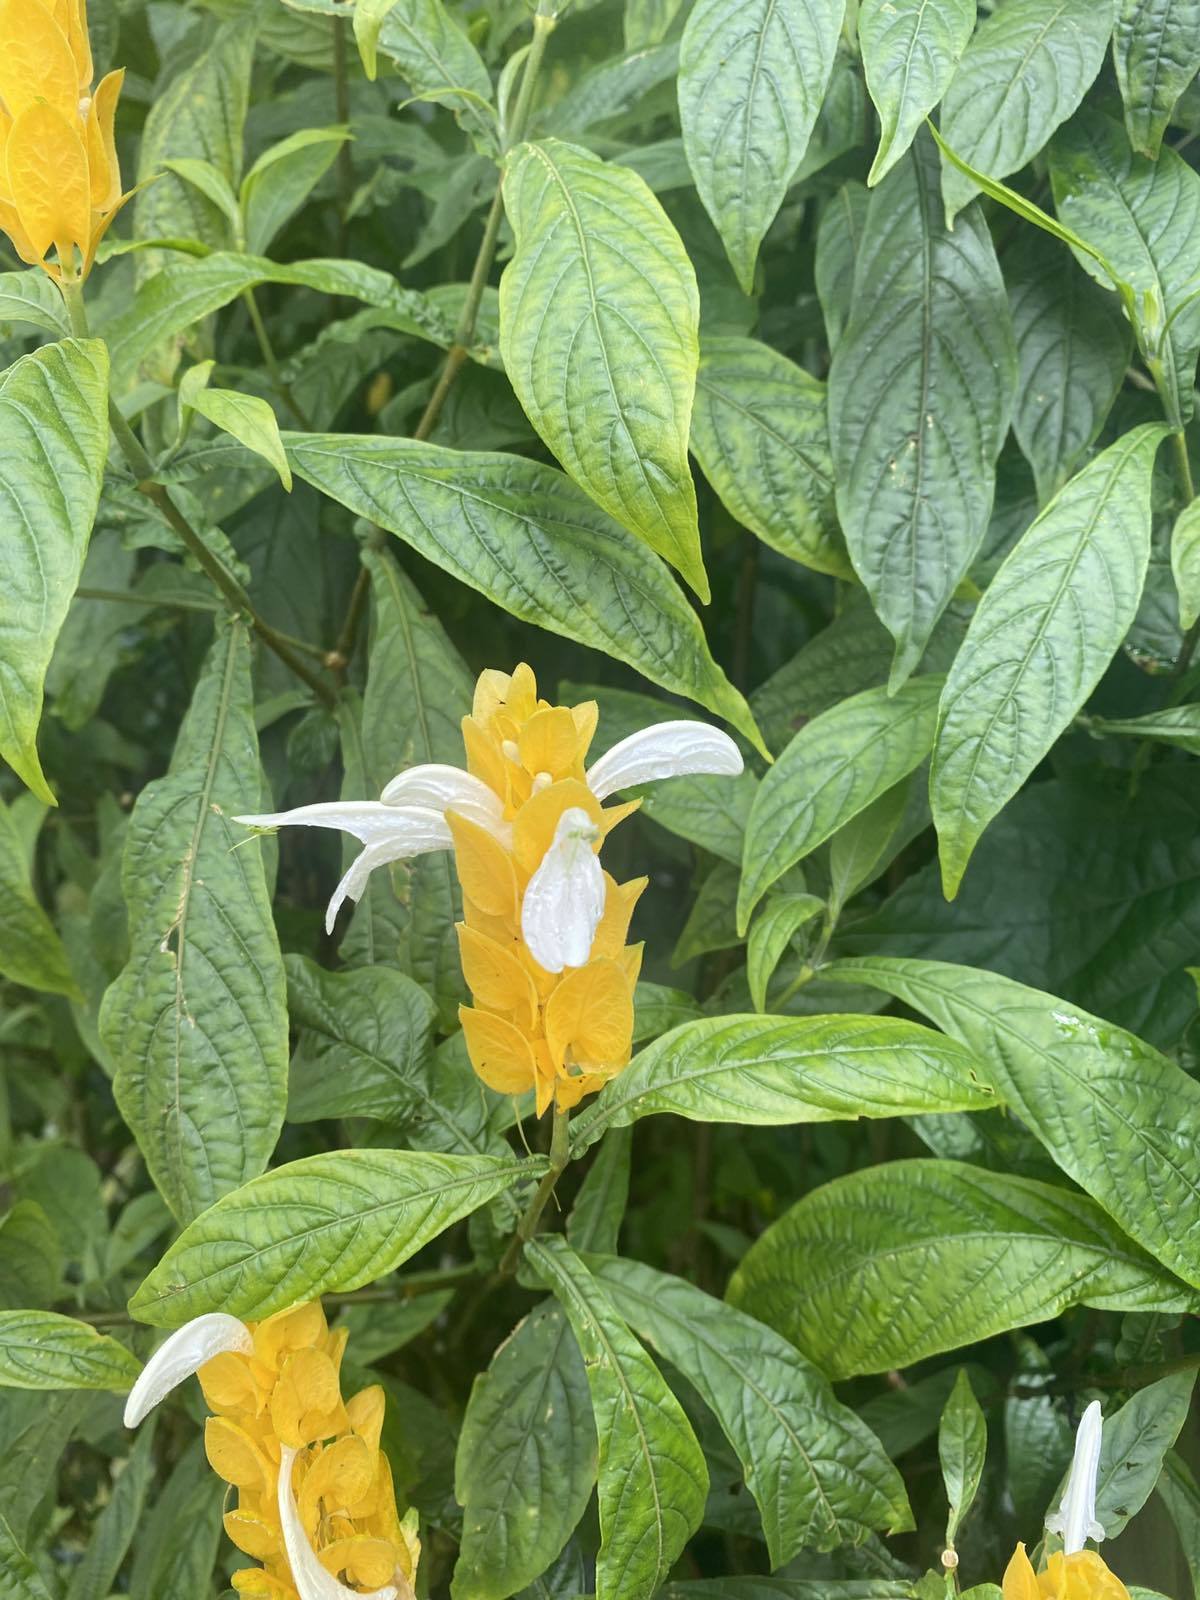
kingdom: Plantae
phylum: Tracheophyta
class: Magnoliopsida
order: Lamiales
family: Acanthaceae
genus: Pachystachys
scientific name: Pachystachys lutea
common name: Golden shrimp-plant
